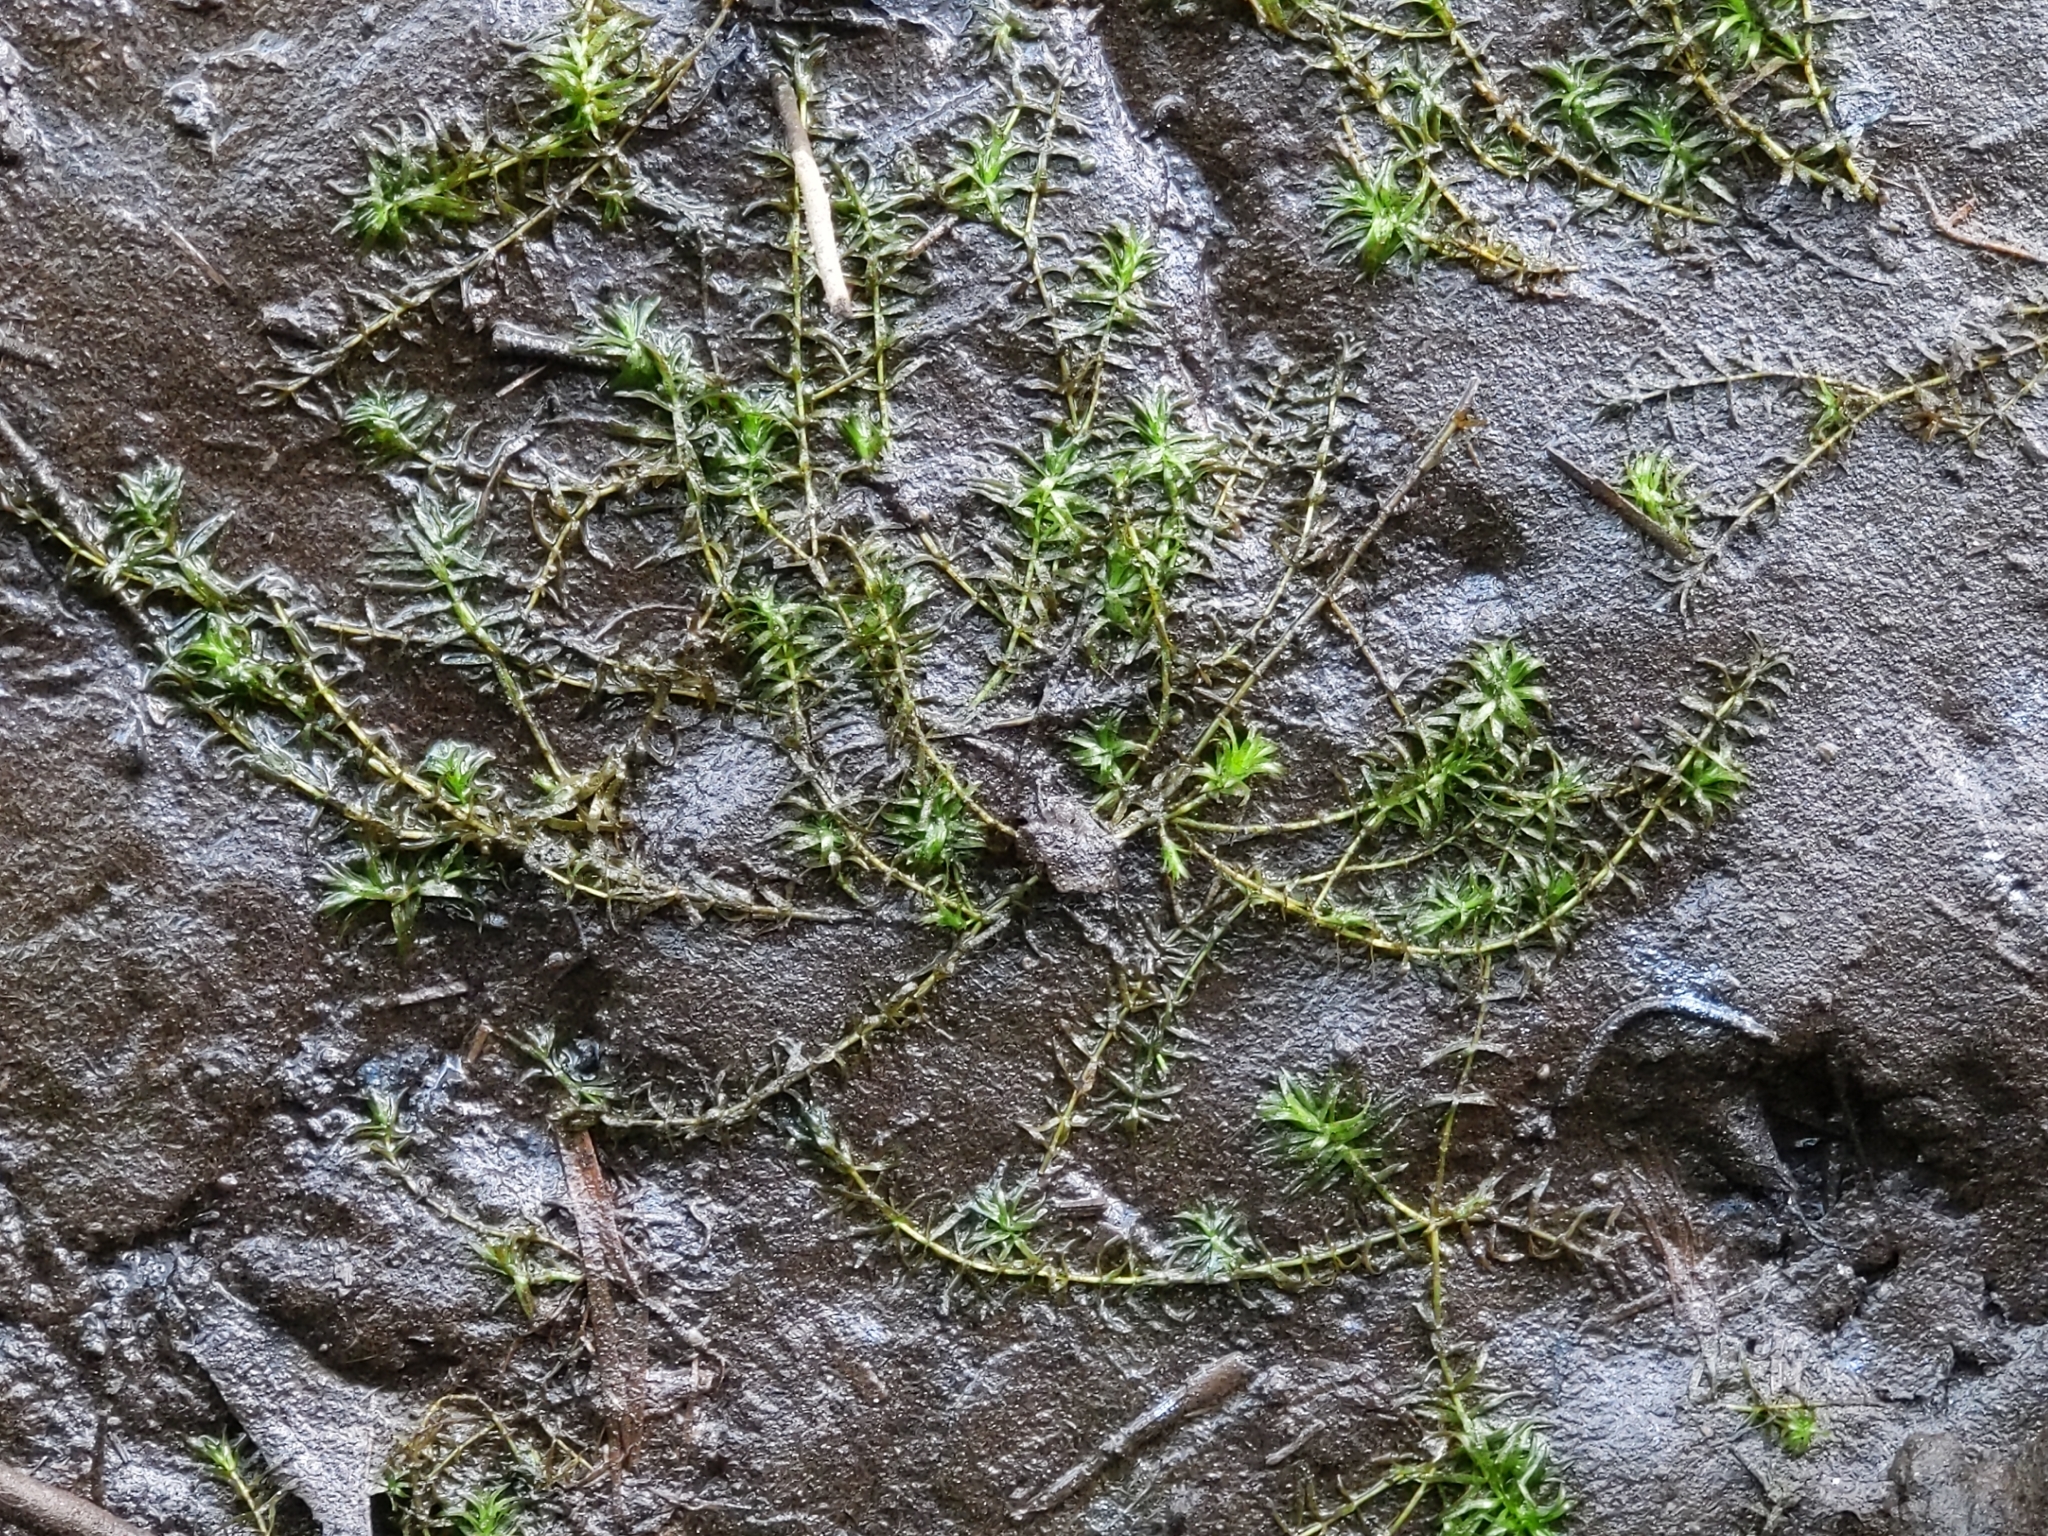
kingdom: Plantae
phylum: Tracheophyta
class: Liliopsida
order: Alismatales
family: Hydrocharitaceae
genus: Hydrilla
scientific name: Hydrilla verticillata
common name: Florida-elodea
